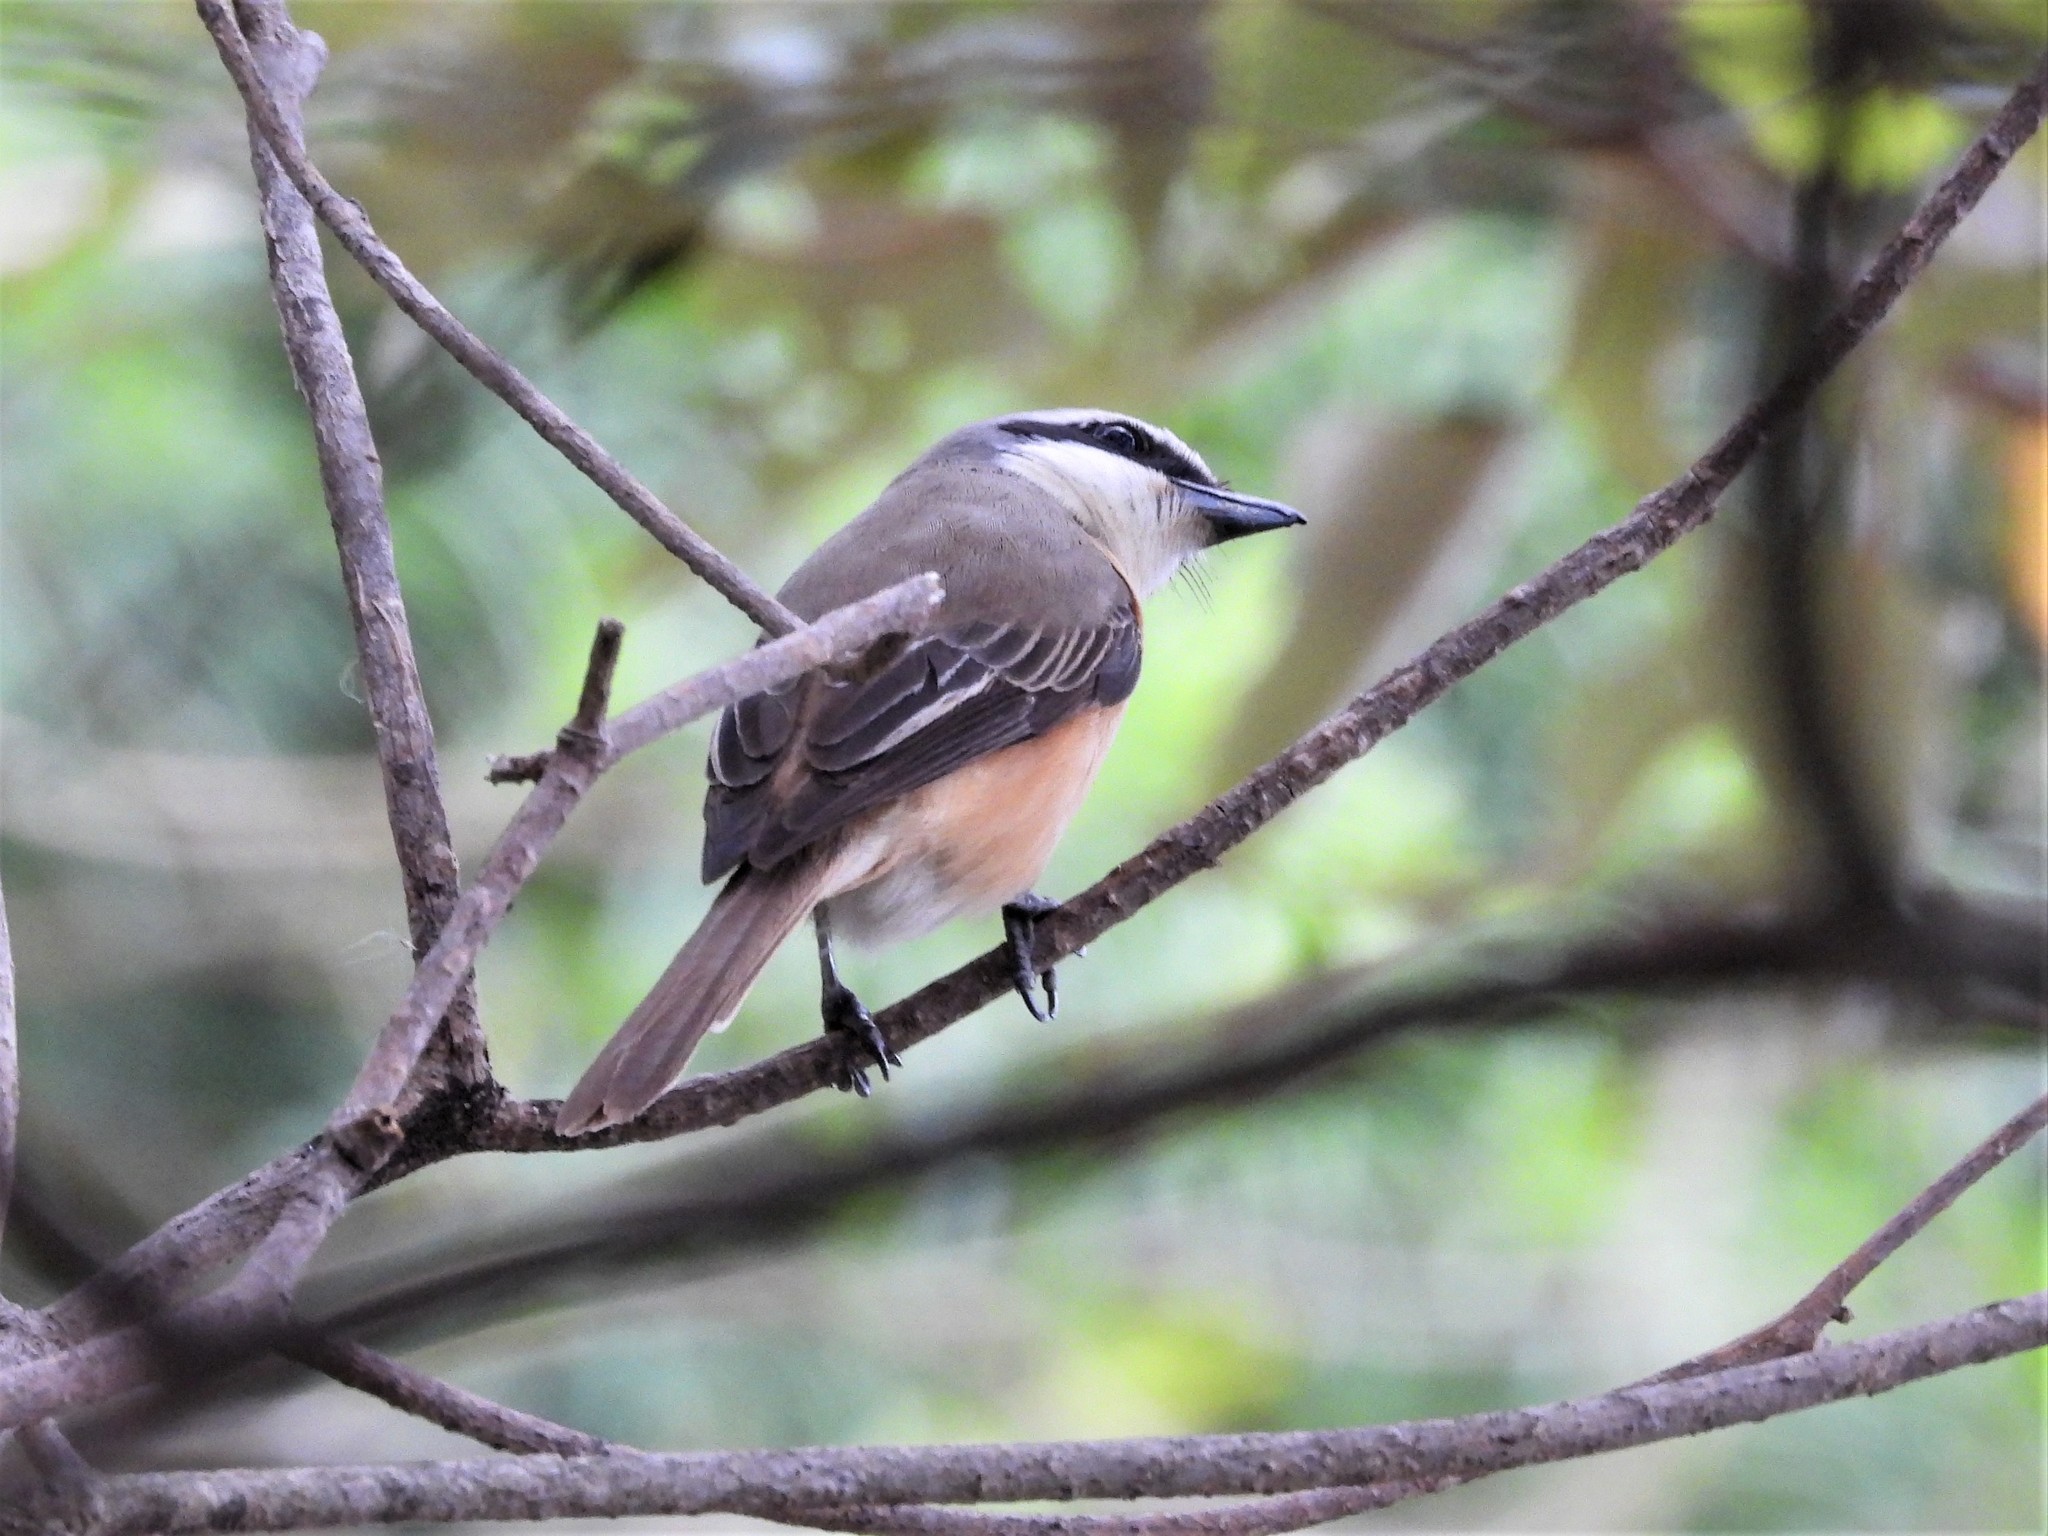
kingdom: Animalia
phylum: Chordata
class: Aves
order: Passeriformes
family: Laniidae
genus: Lanius
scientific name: Lanius cristatus
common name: Brown shrike
